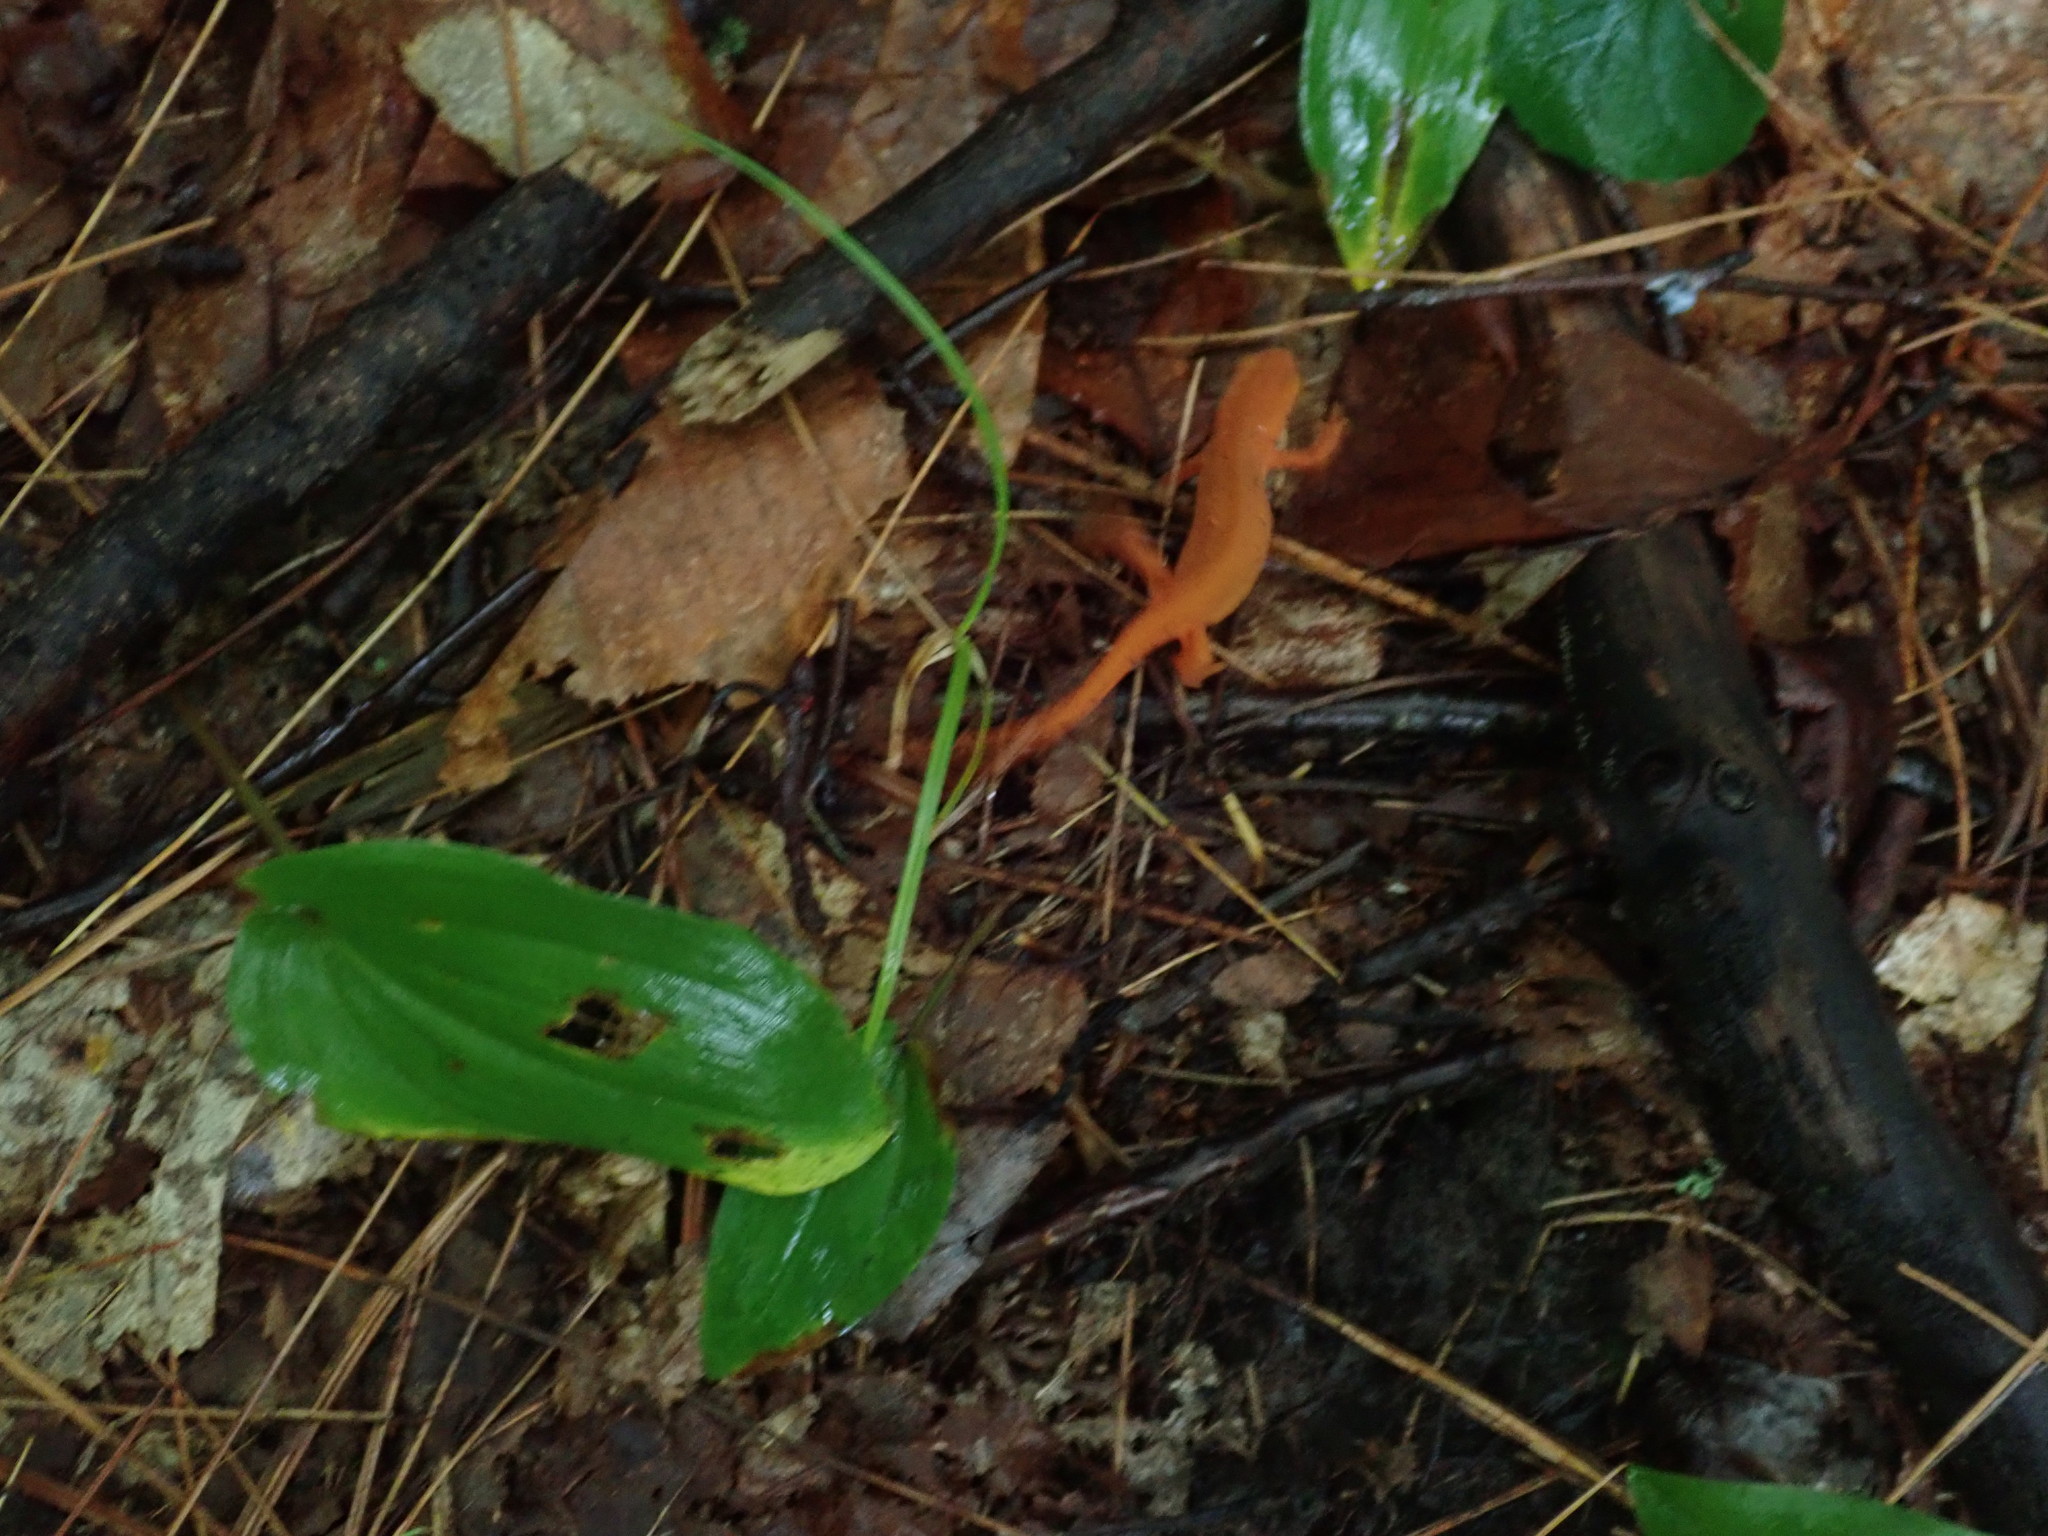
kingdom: Animalia
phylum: Chordata
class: Amphibia
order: Caudata
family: Salamandridae
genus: Notophthalmus
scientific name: Notophthalmus viridescens
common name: Eastern newt
